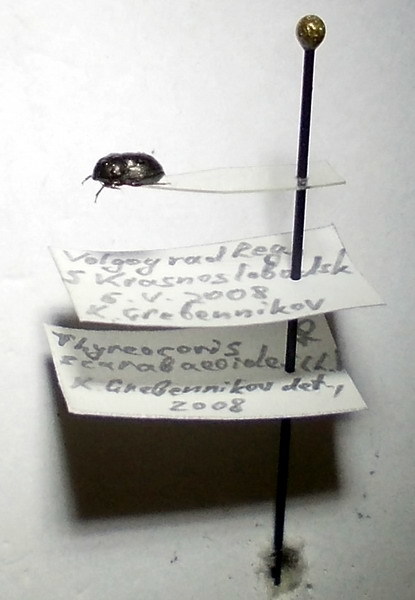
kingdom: Animalia
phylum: Arthropoda
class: Insecta
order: Hemiptera
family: Thyreocoridae
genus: Thyreocoris
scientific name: Thyreocoris scarabaeoides
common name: Negro bug
